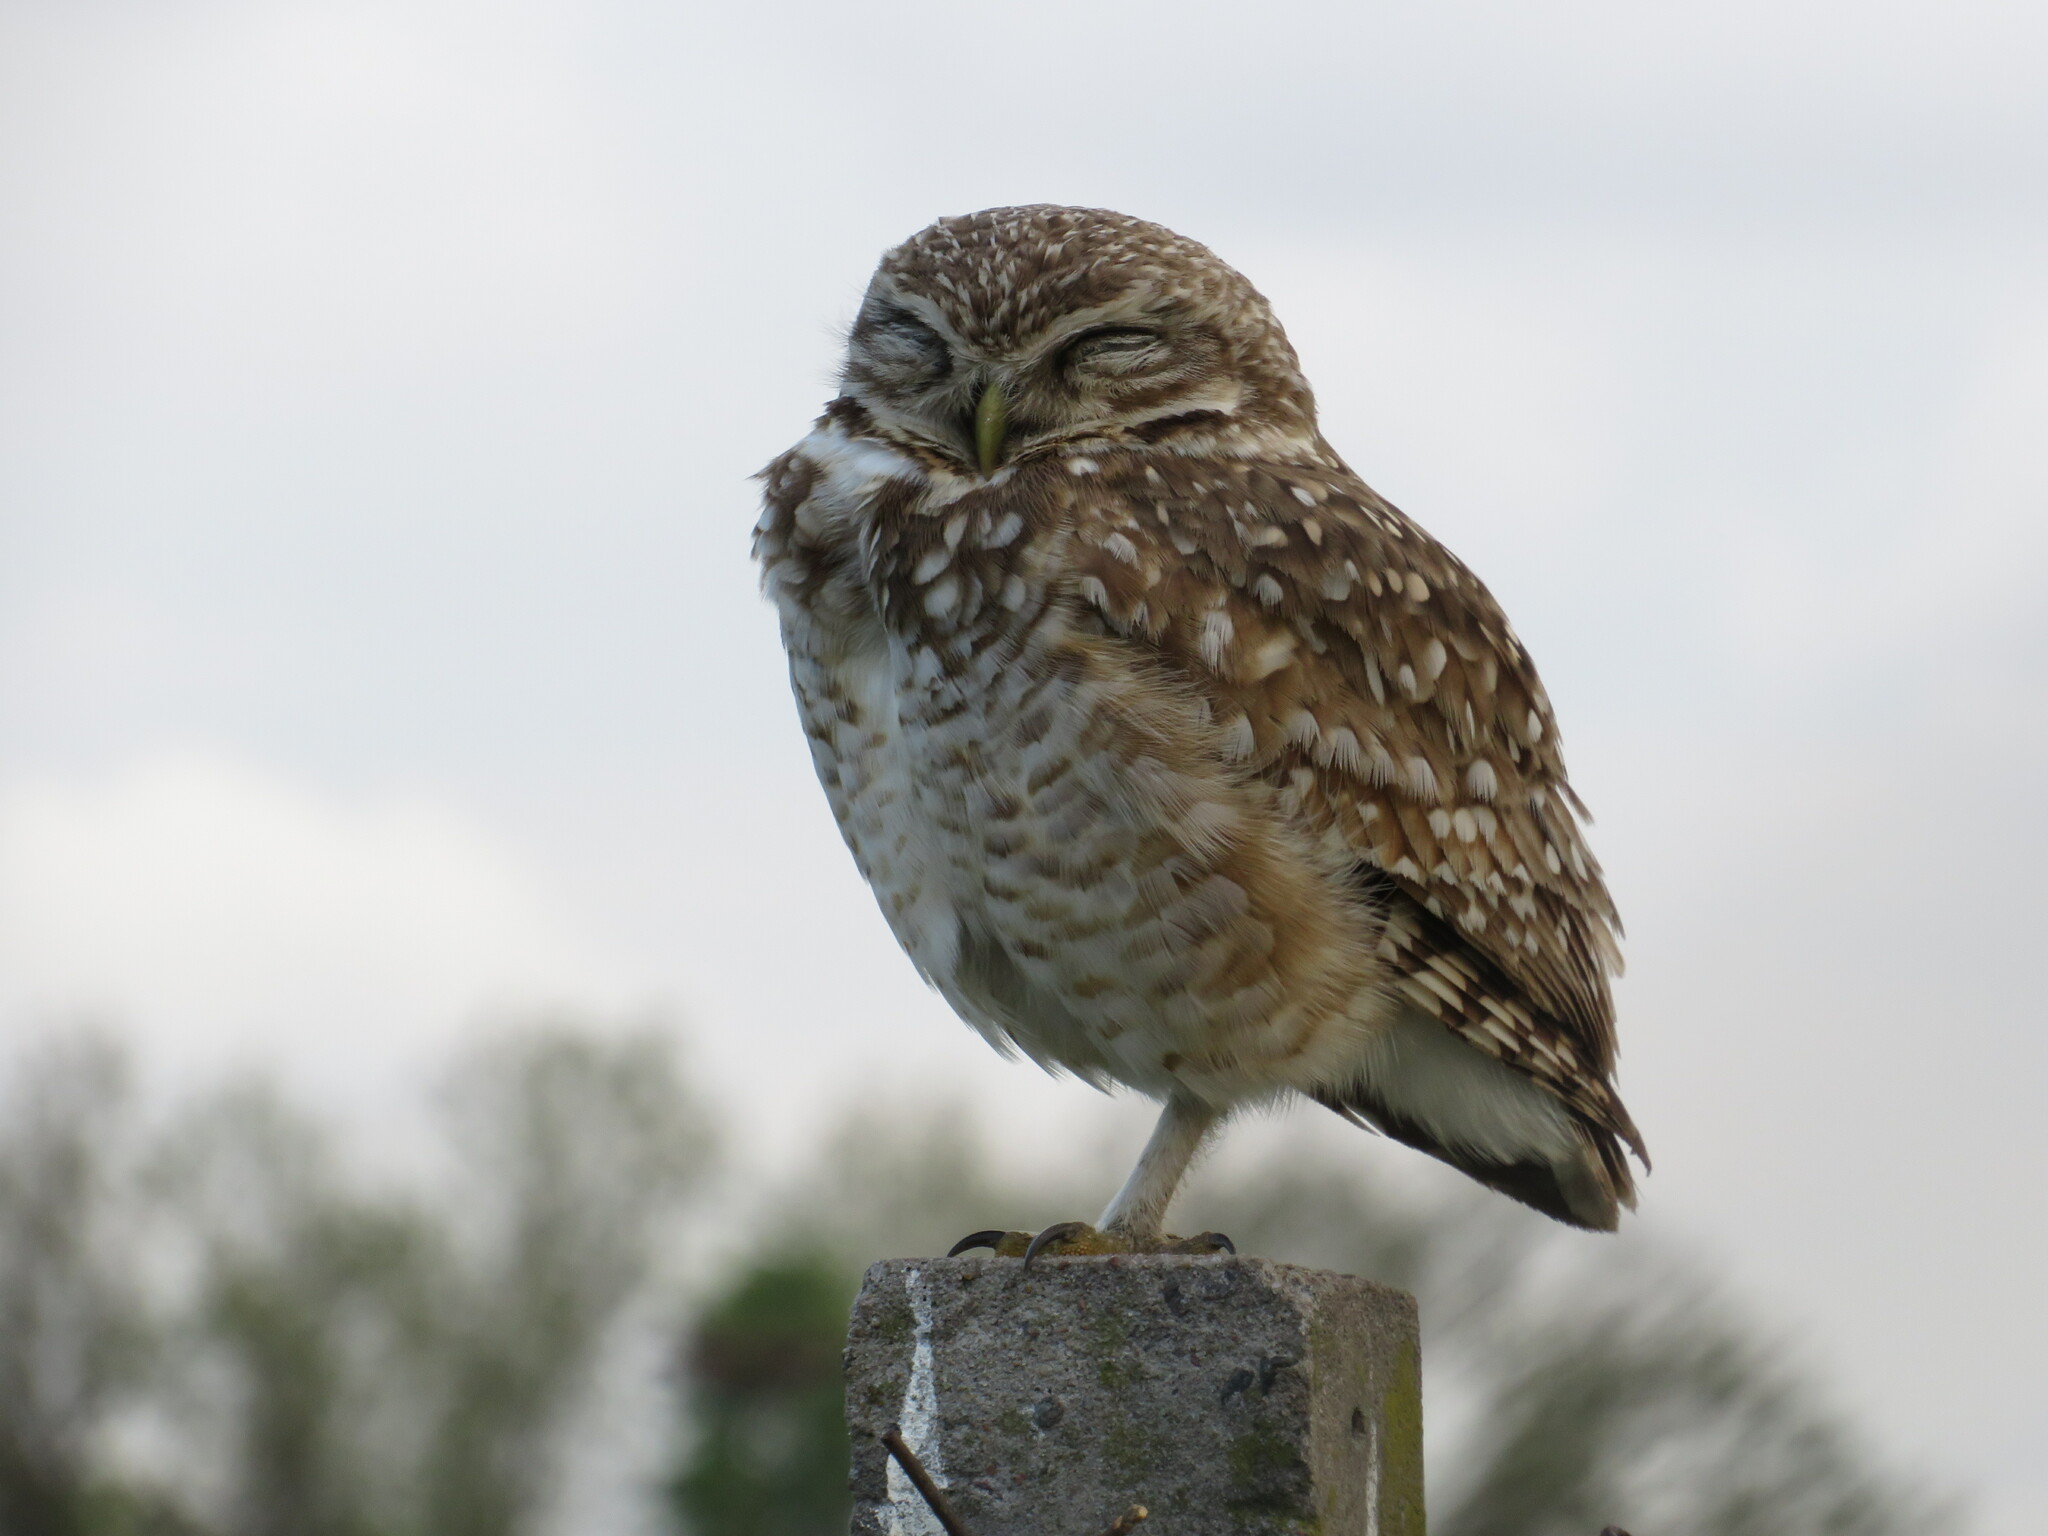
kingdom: Animalia
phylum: Chordata
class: Aves
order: Strigiformes
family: Strigidae
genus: Athene
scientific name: Athene cunicularia
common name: Burrowing owl
